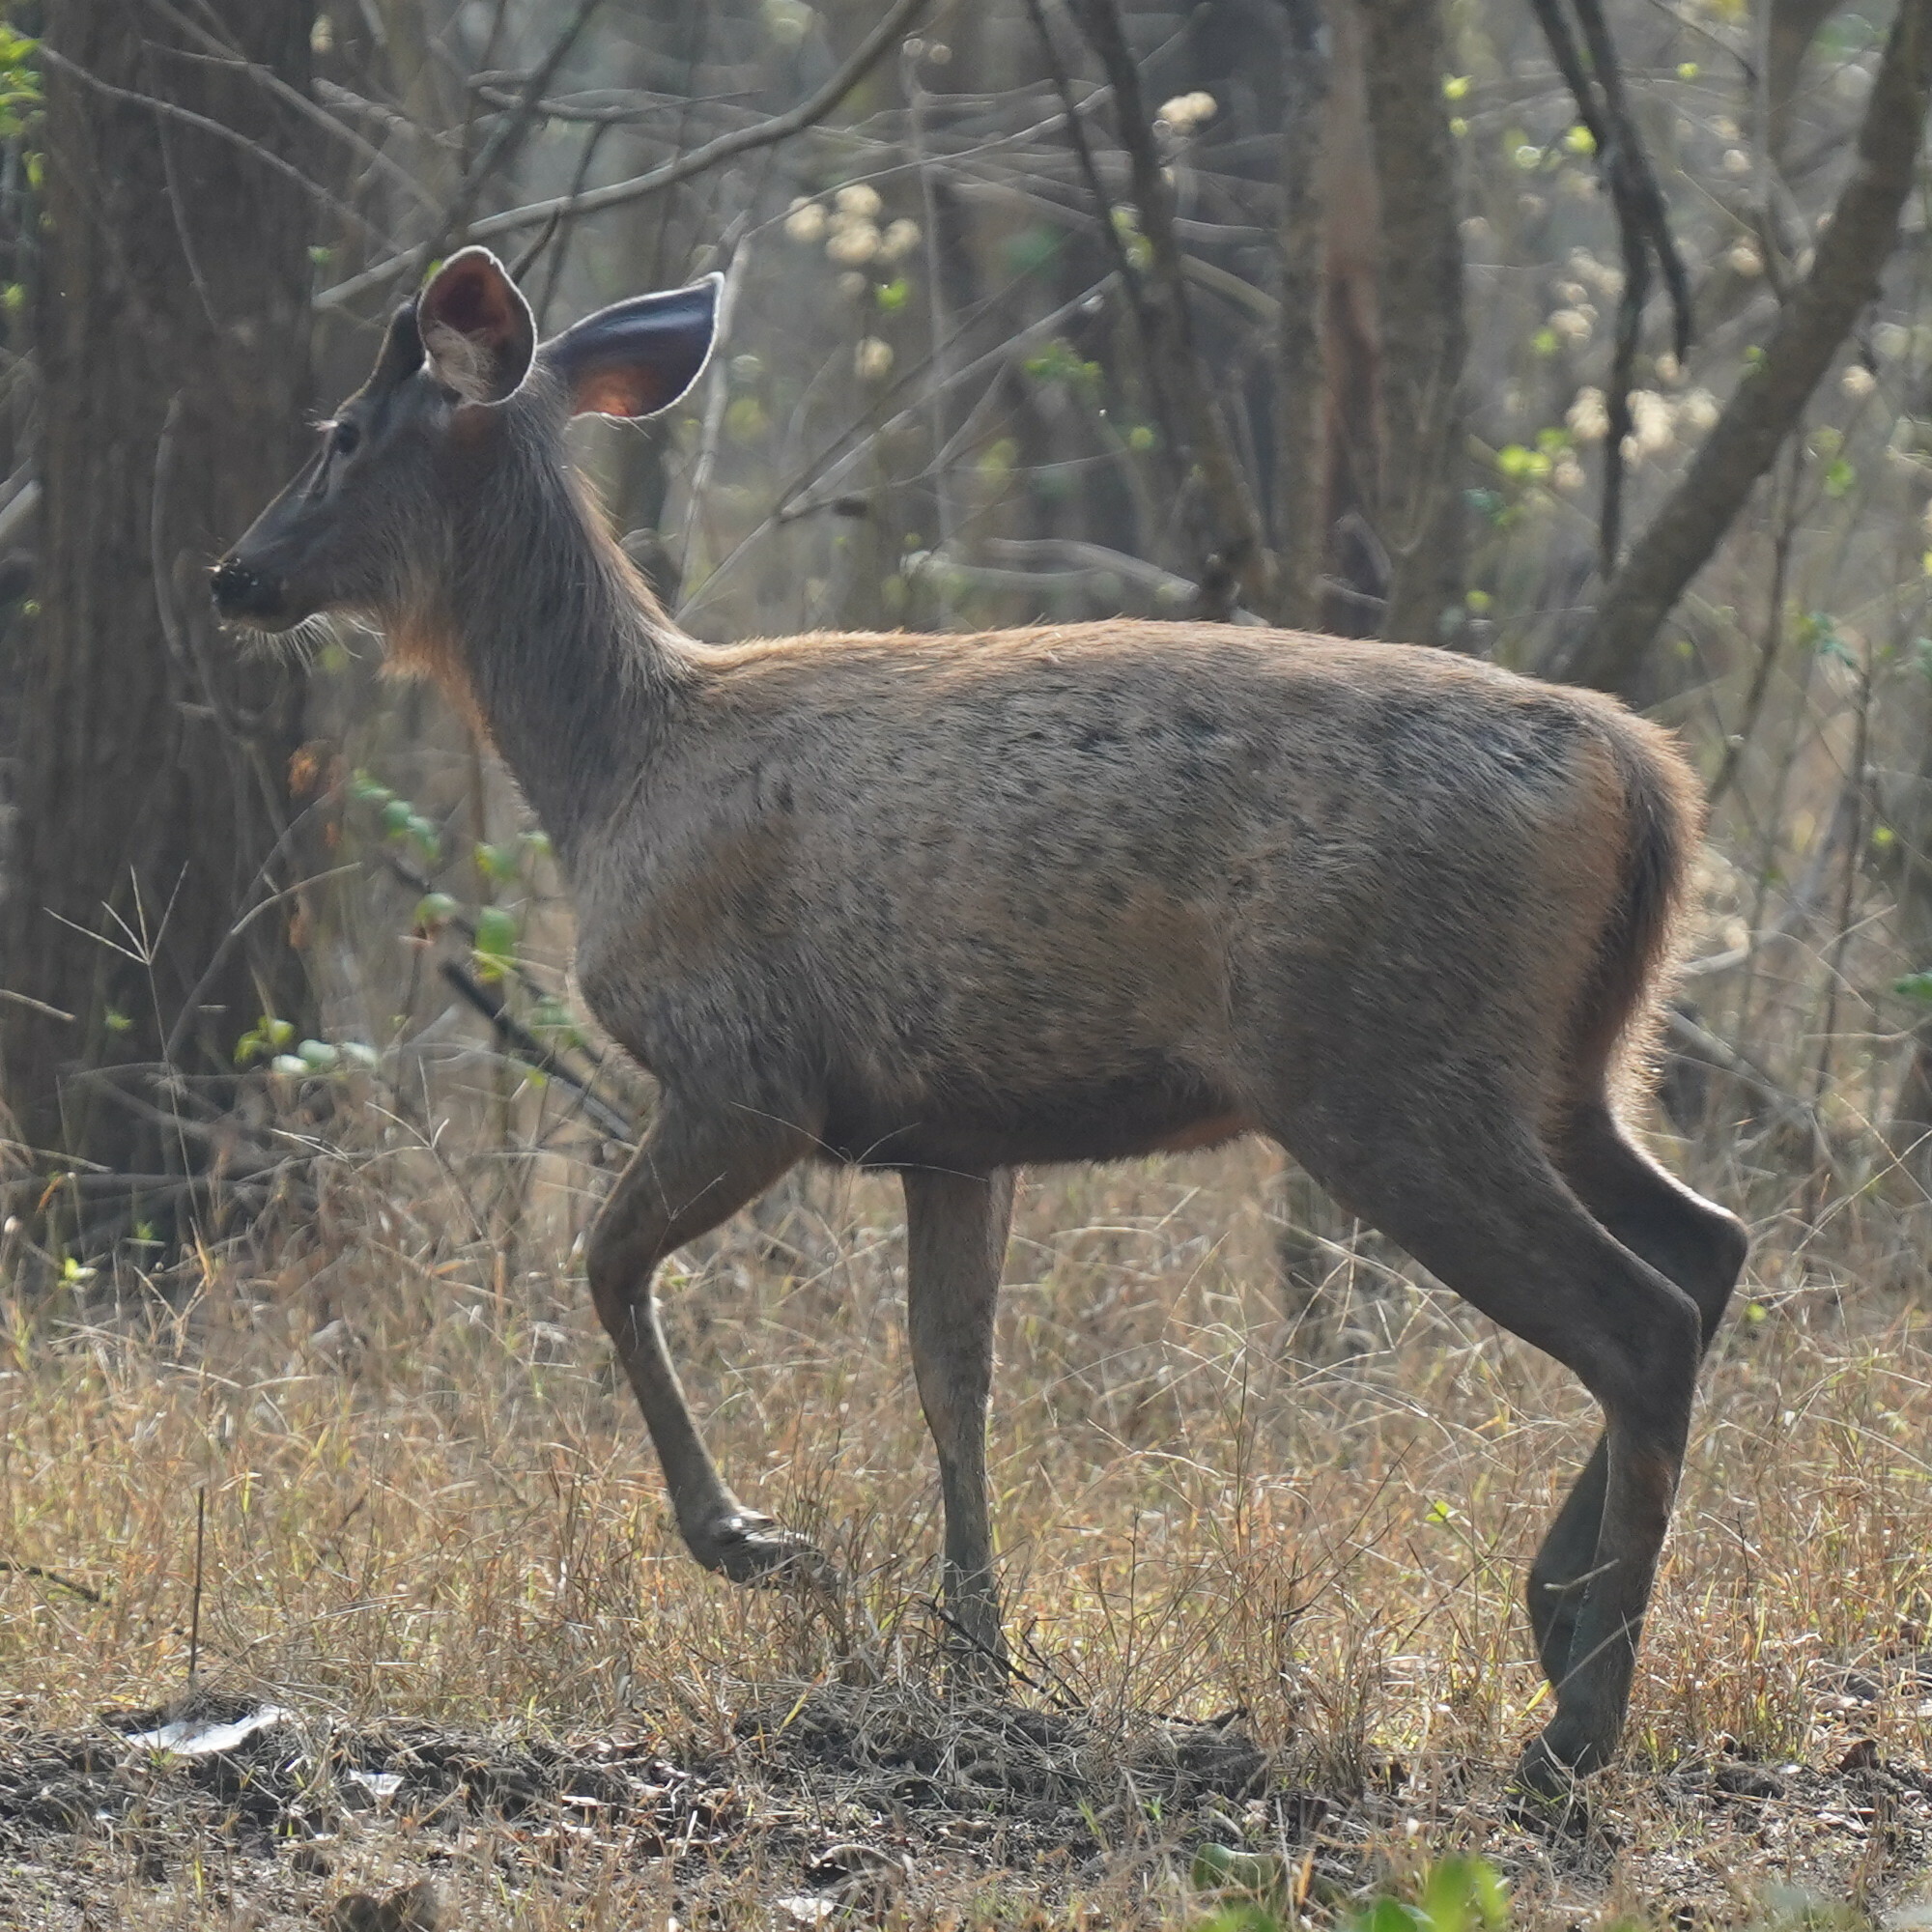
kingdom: Animalia
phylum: Chordata
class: Mammalia
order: Artiodactyla
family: Cervidae
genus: Rusa
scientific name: Rusa unicolor
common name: Sambar
